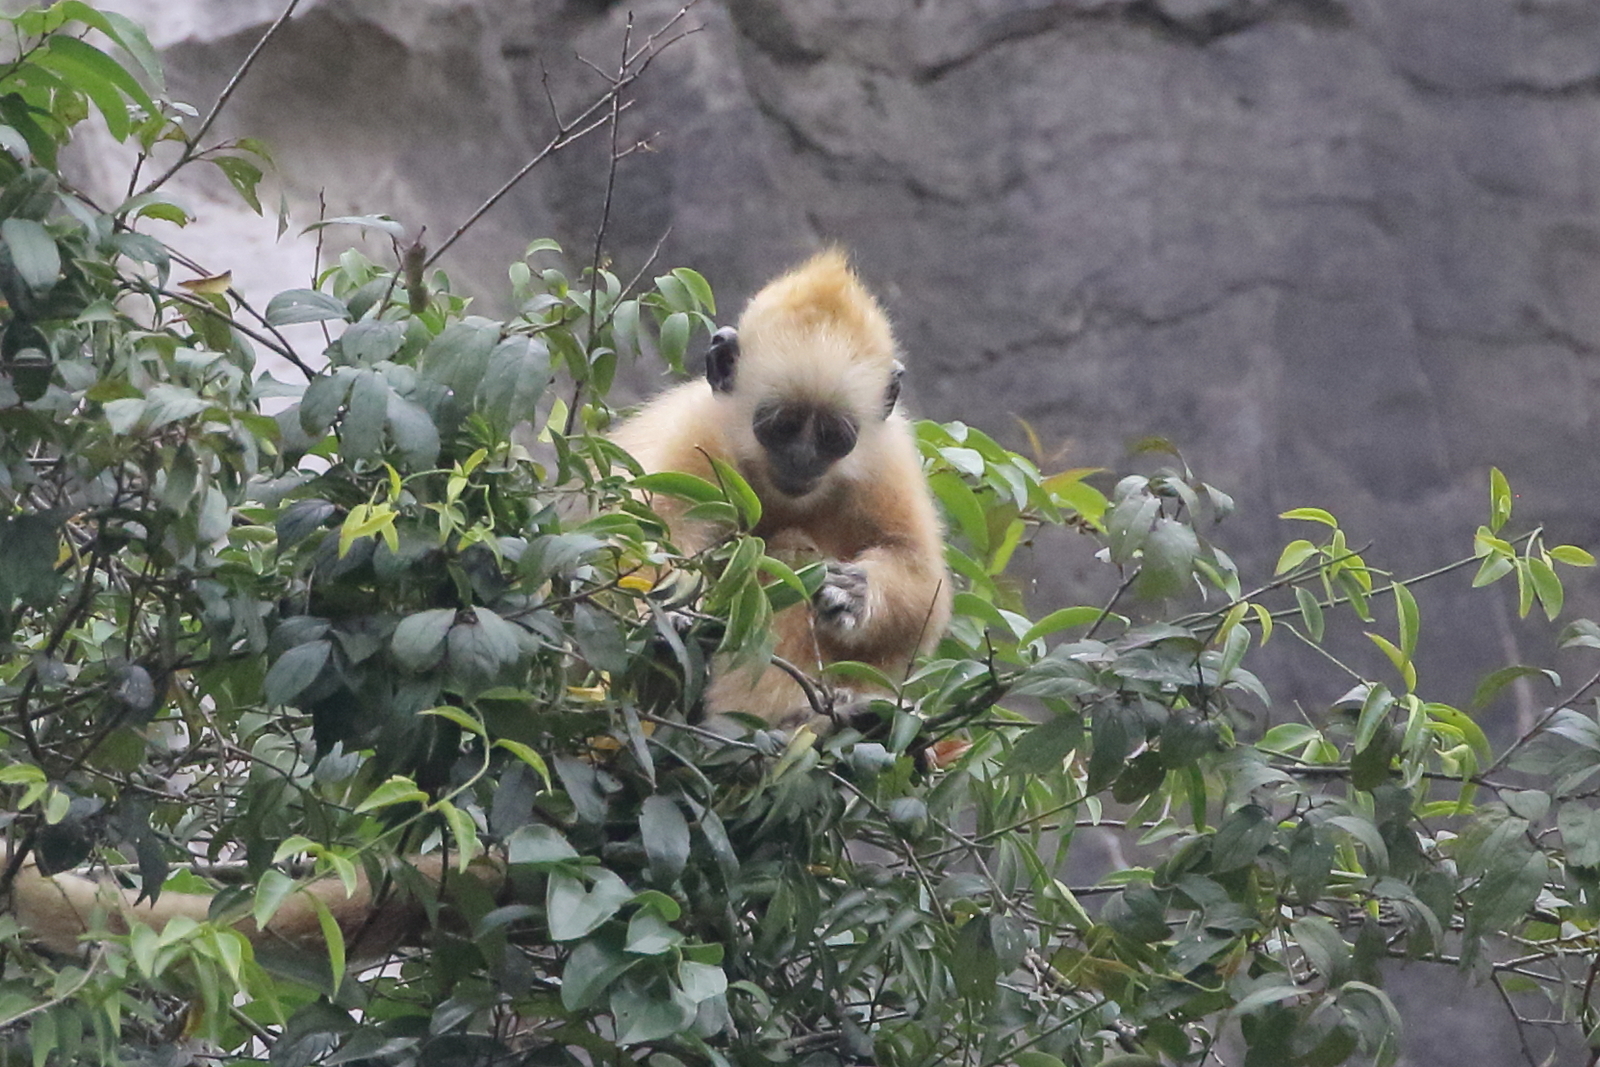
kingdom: Animalia
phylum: Chordata
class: Mammalia
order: Primates
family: Cercopithecidae
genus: Trachypithecus
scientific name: Trachypithecus leucocephalus
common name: White-headed langur
